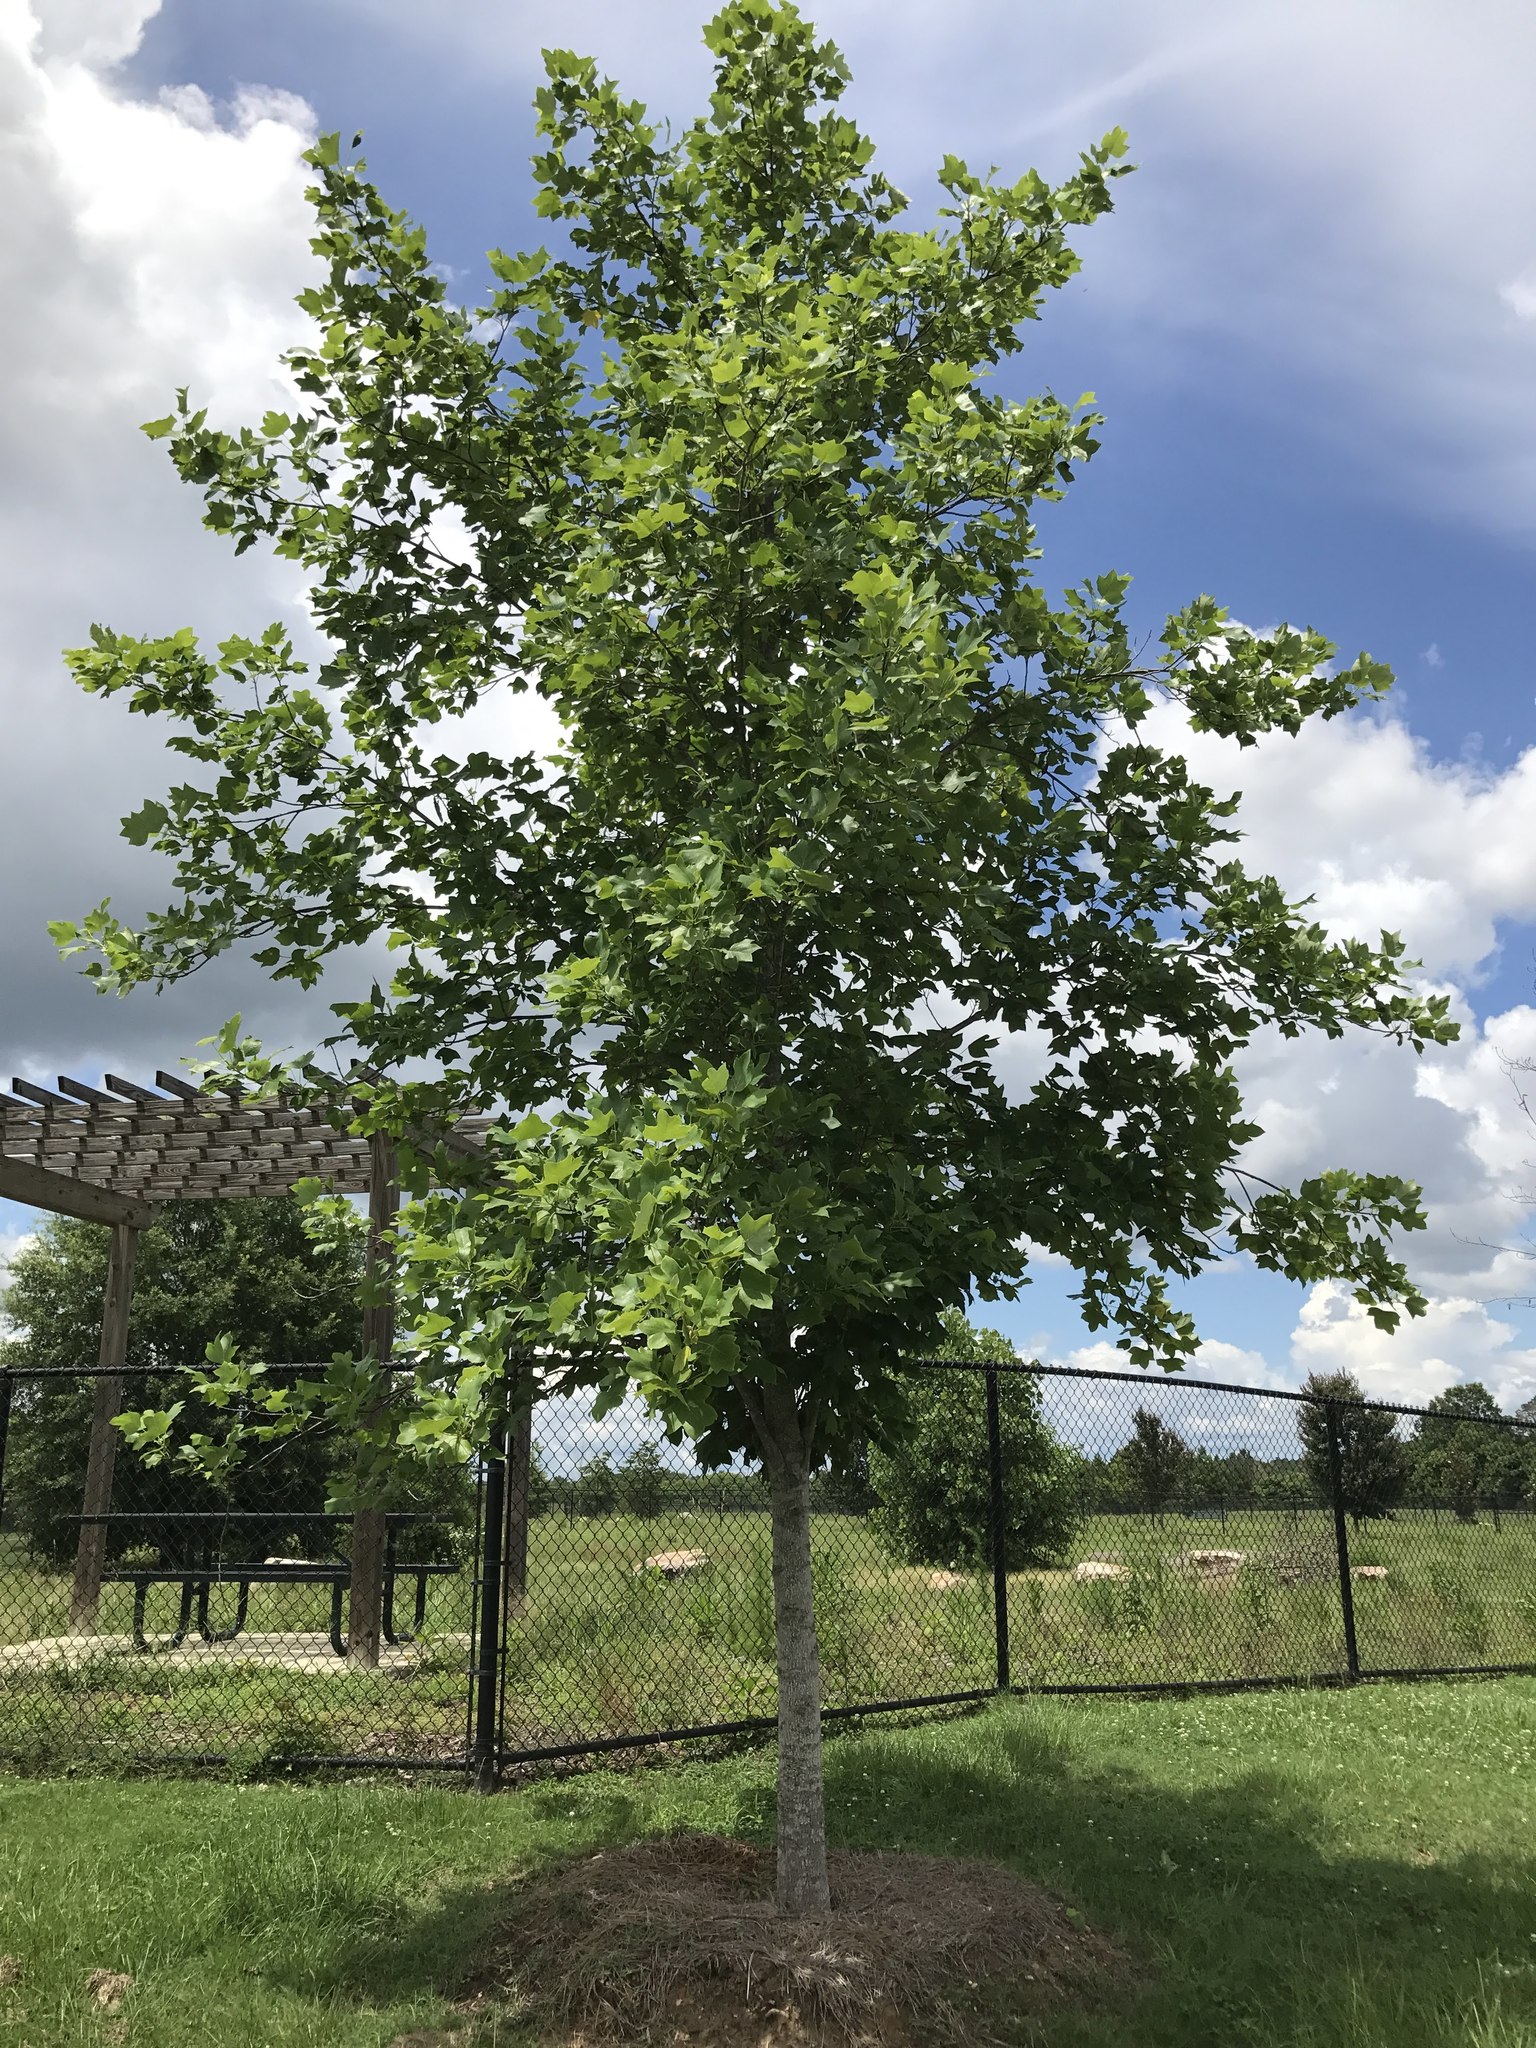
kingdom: Plantae
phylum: Tracheophyta
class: Magnoliopsida
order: Magnoliales
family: Magnoliaceae
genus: Liriodendron
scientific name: Liriodendron tulipifera
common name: Tulip tree
